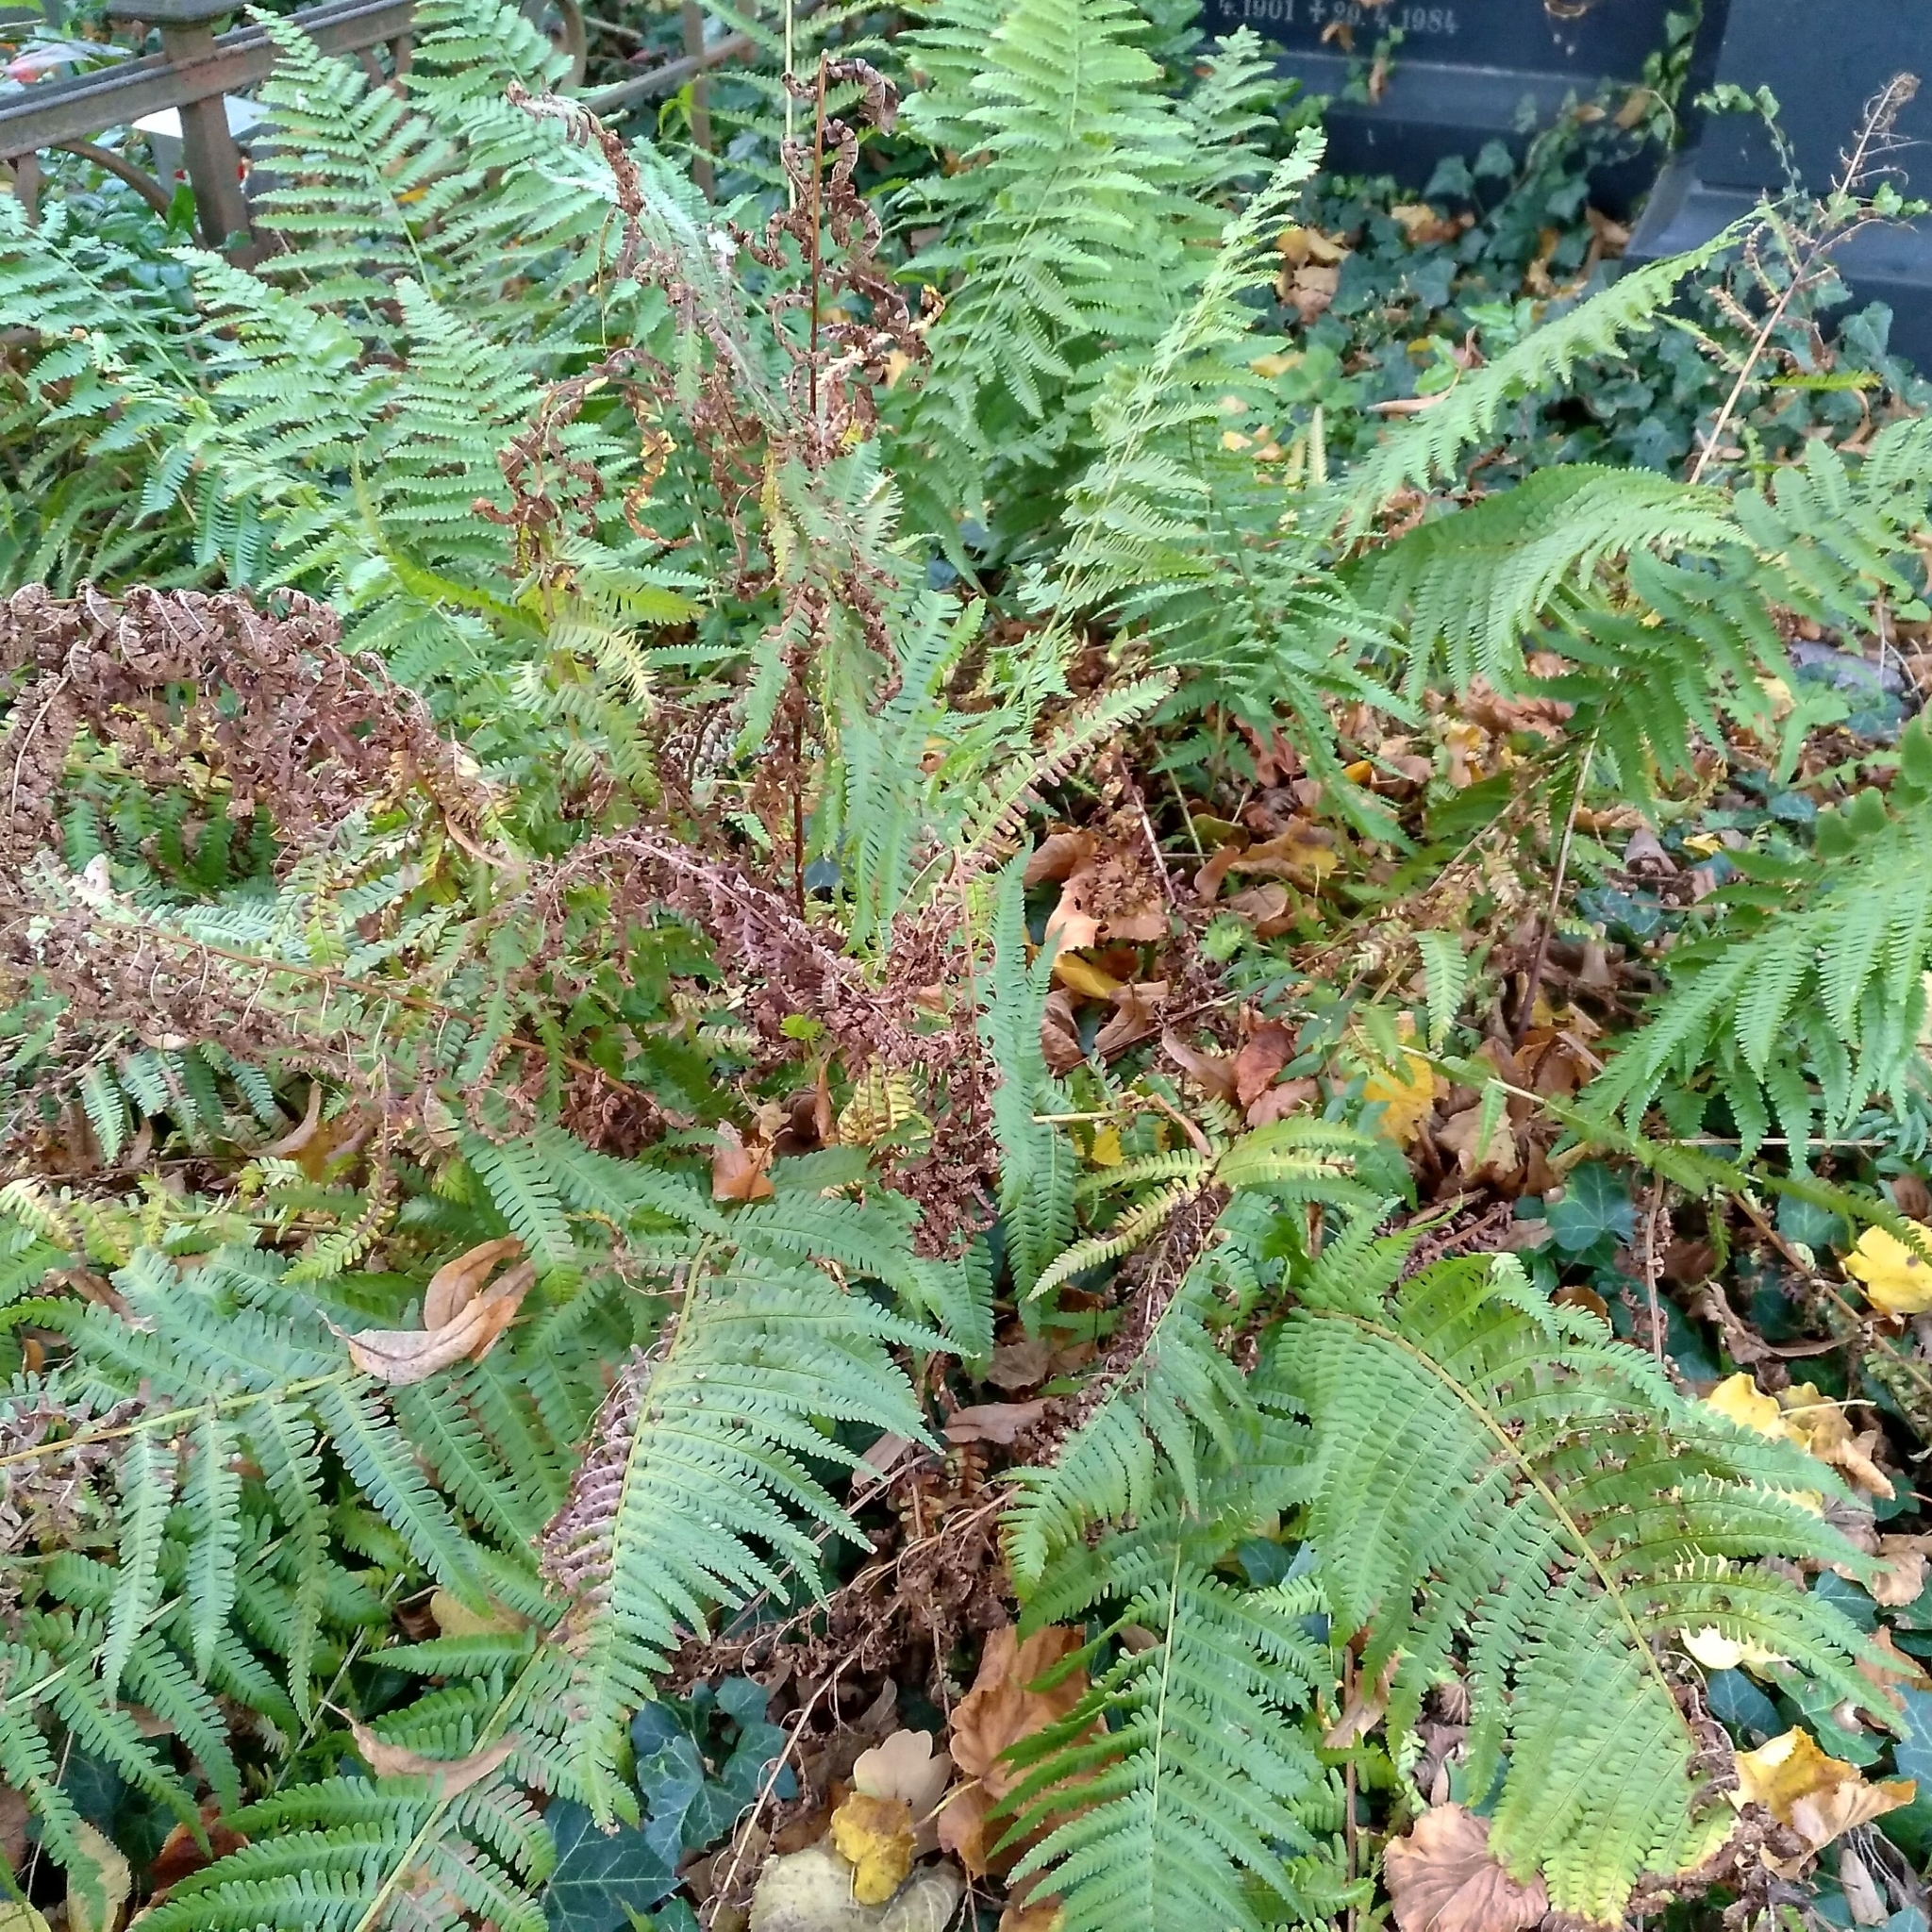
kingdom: Plantae
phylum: Tracheophyta
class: Polypodiopsida
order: Polypodiales
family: Dryopteridaceae
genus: Dryopteris
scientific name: Dryopteris filix-mas
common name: Male fern
